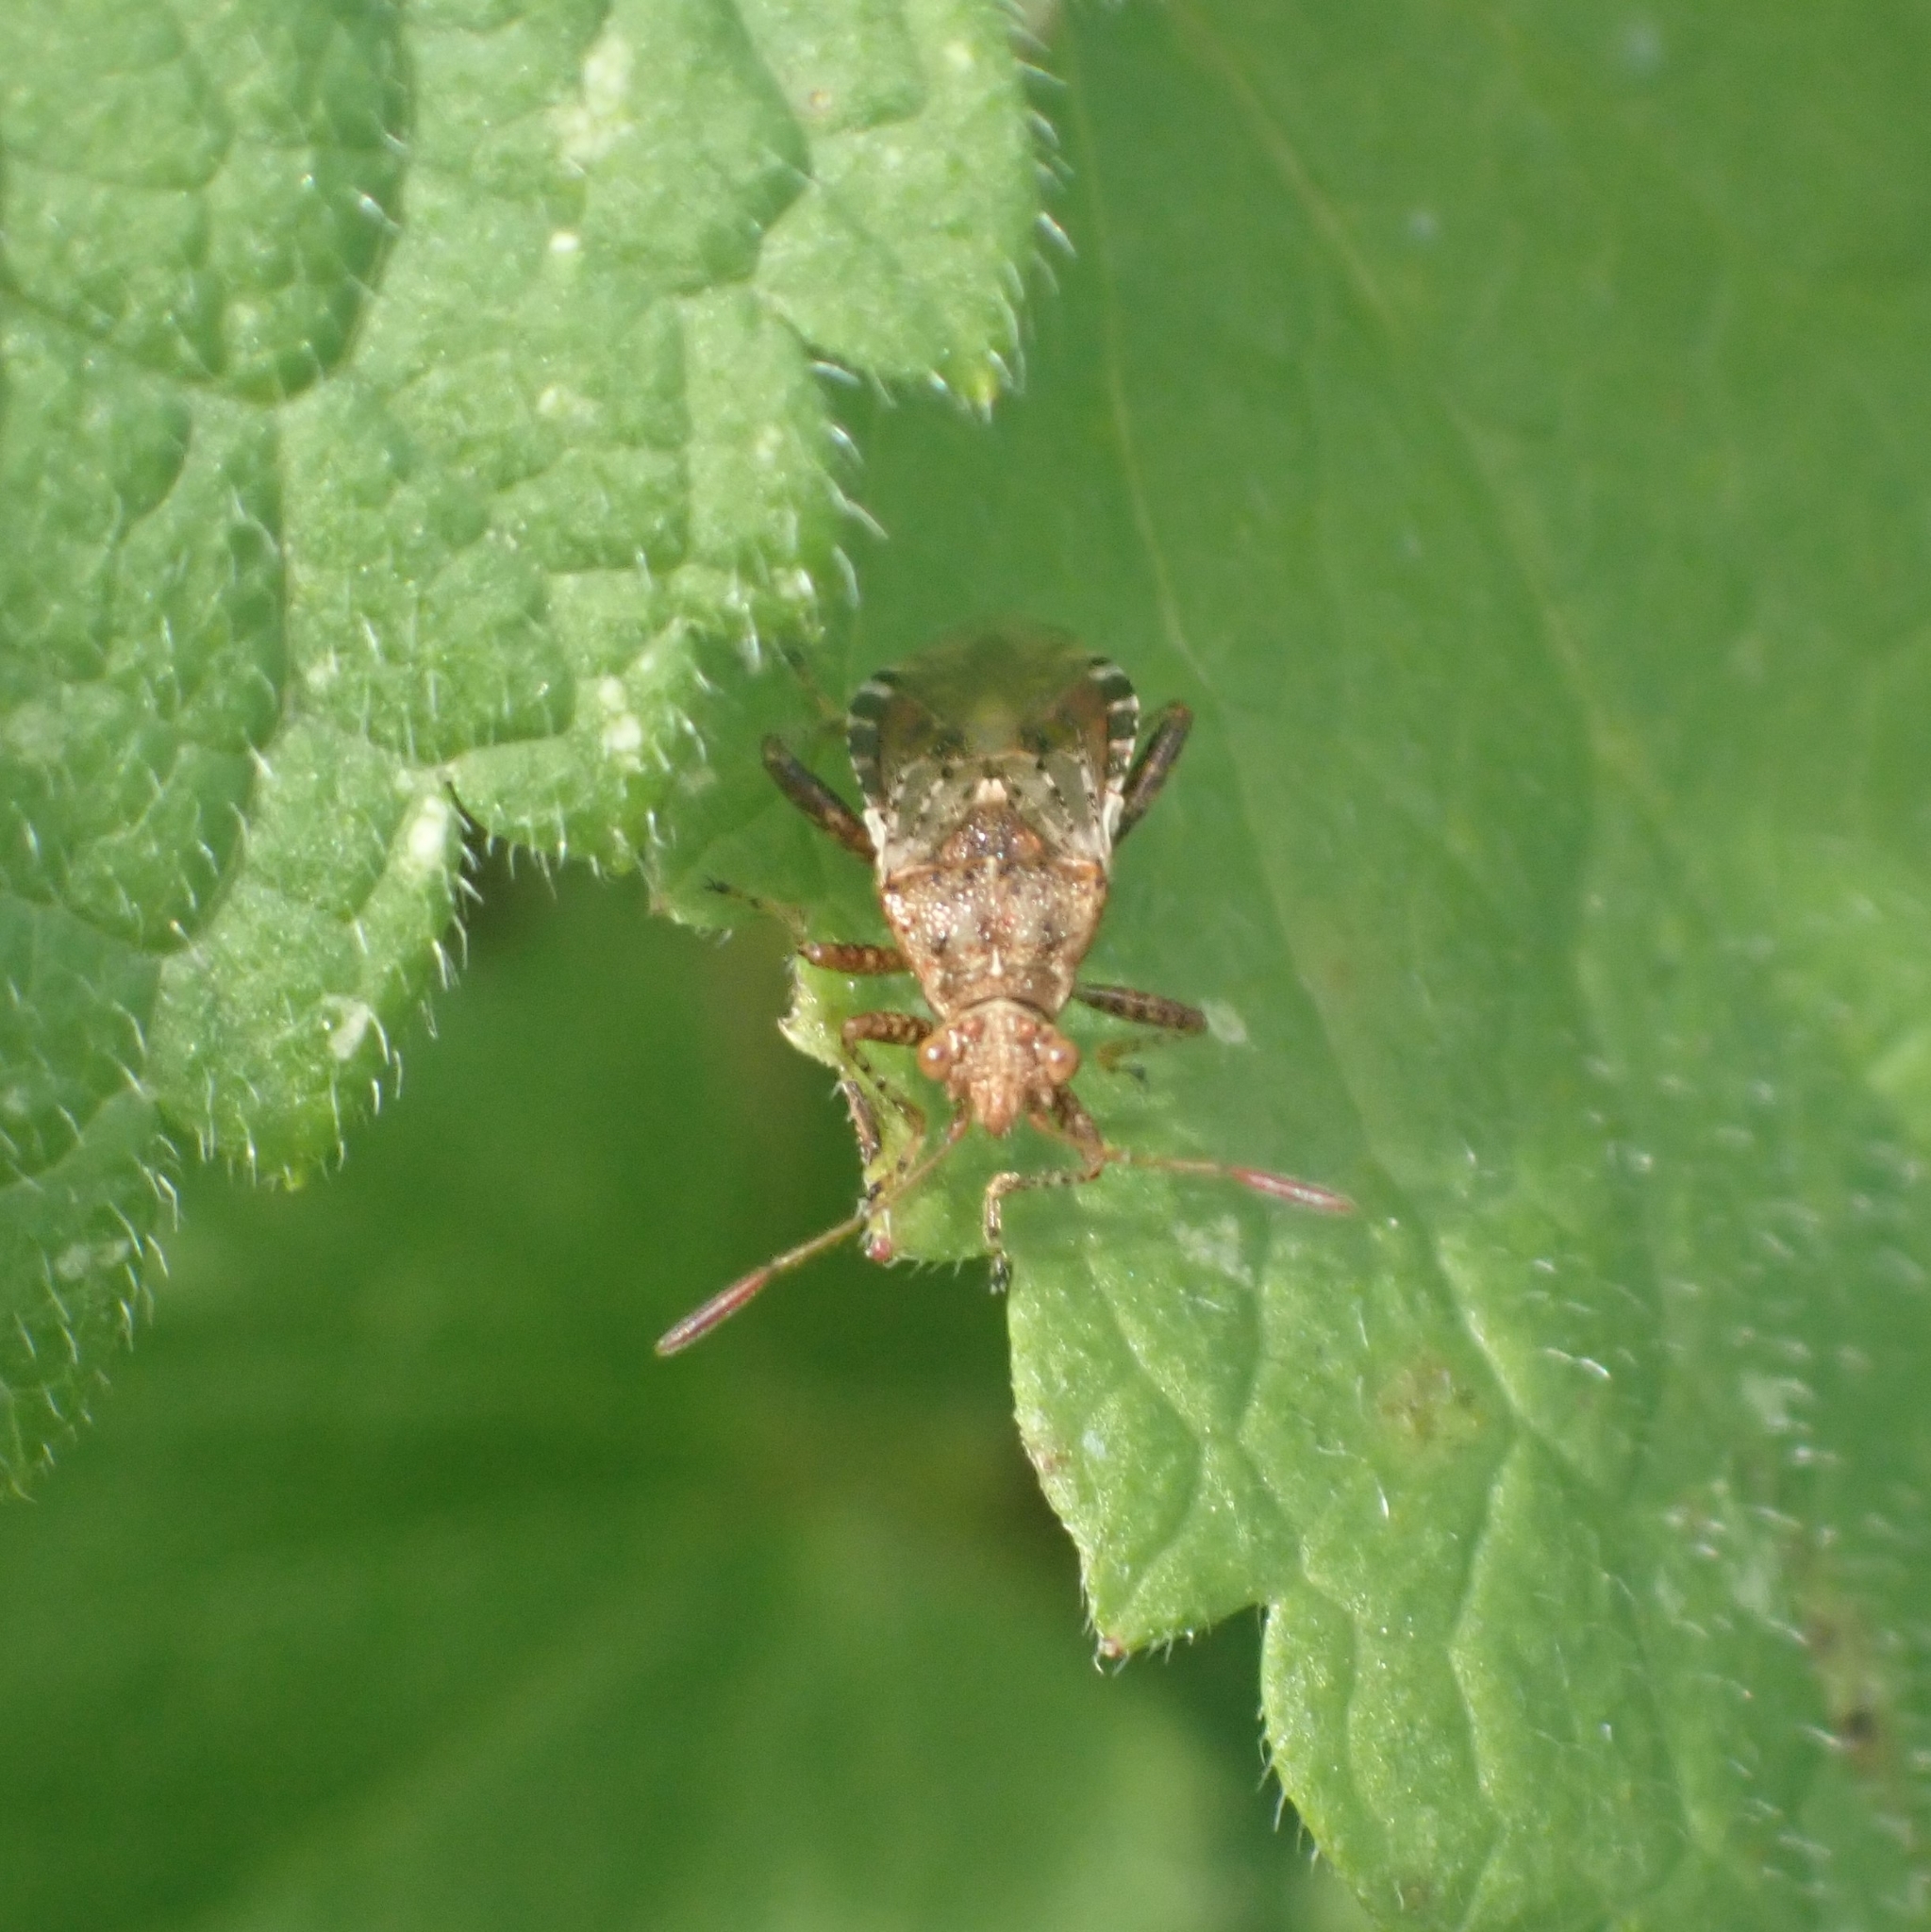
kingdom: Animalia
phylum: Arthropoda
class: Insecta
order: Hemiptera
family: Rhopalidae
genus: Rhopalus
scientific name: Rhopalus subrufus
